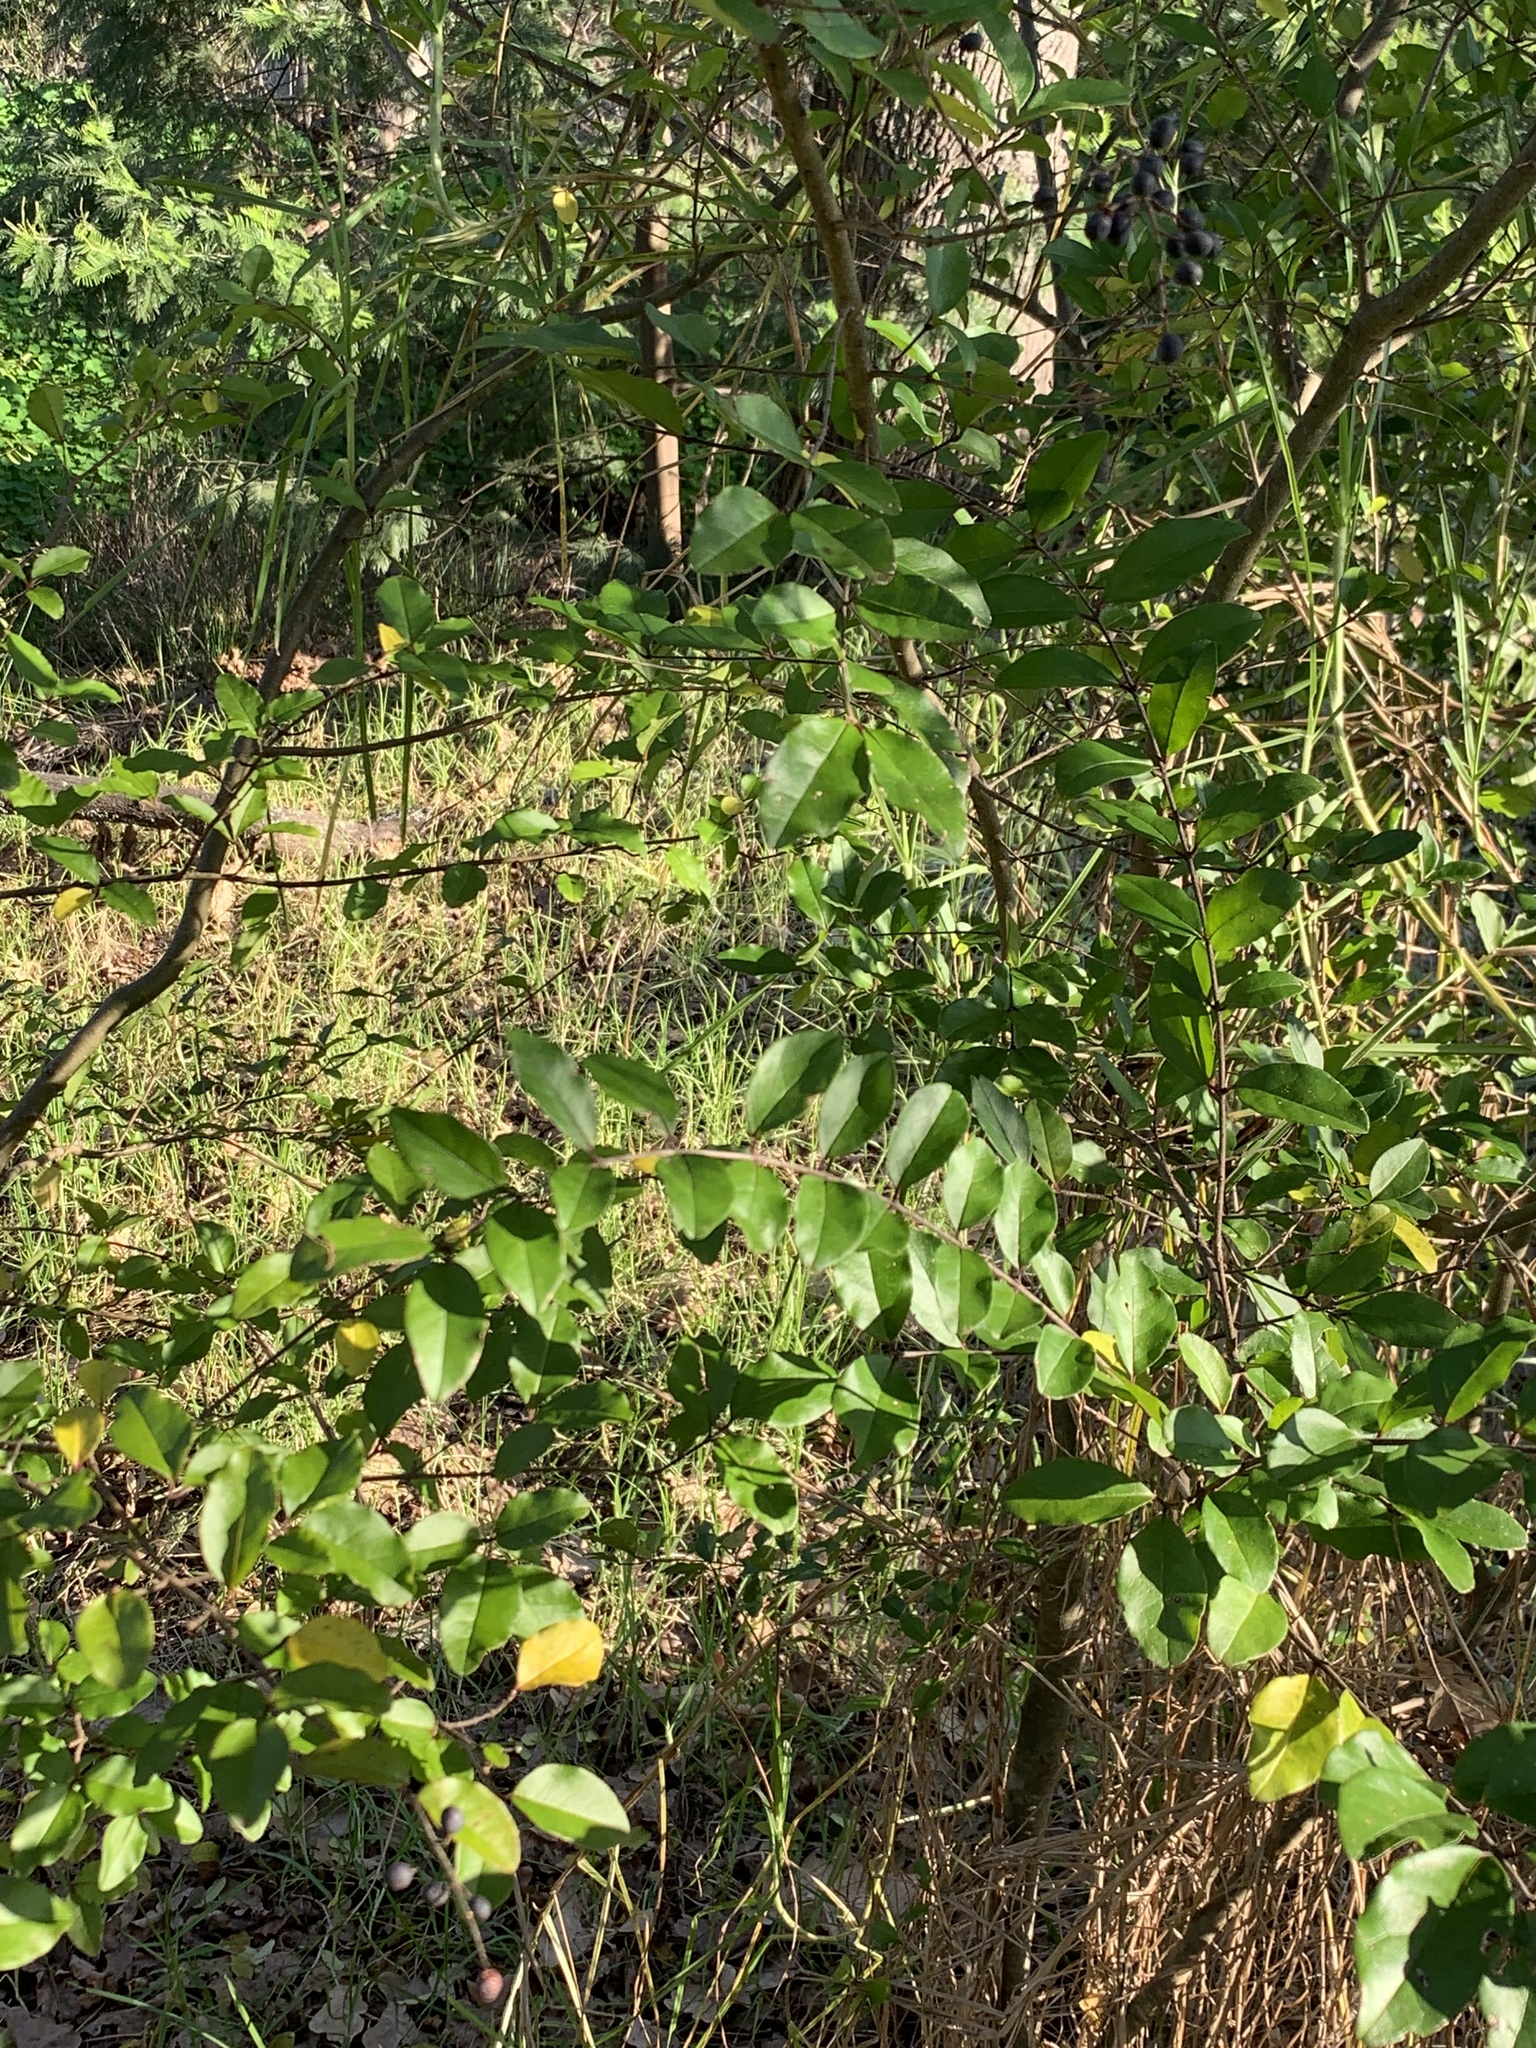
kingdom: Plantae
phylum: Tracheophyta
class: Magnoliopsida
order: Lamiales
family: Oleaceae
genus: Ligustrum
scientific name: Ligustrum sinense
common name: Chinese privet
